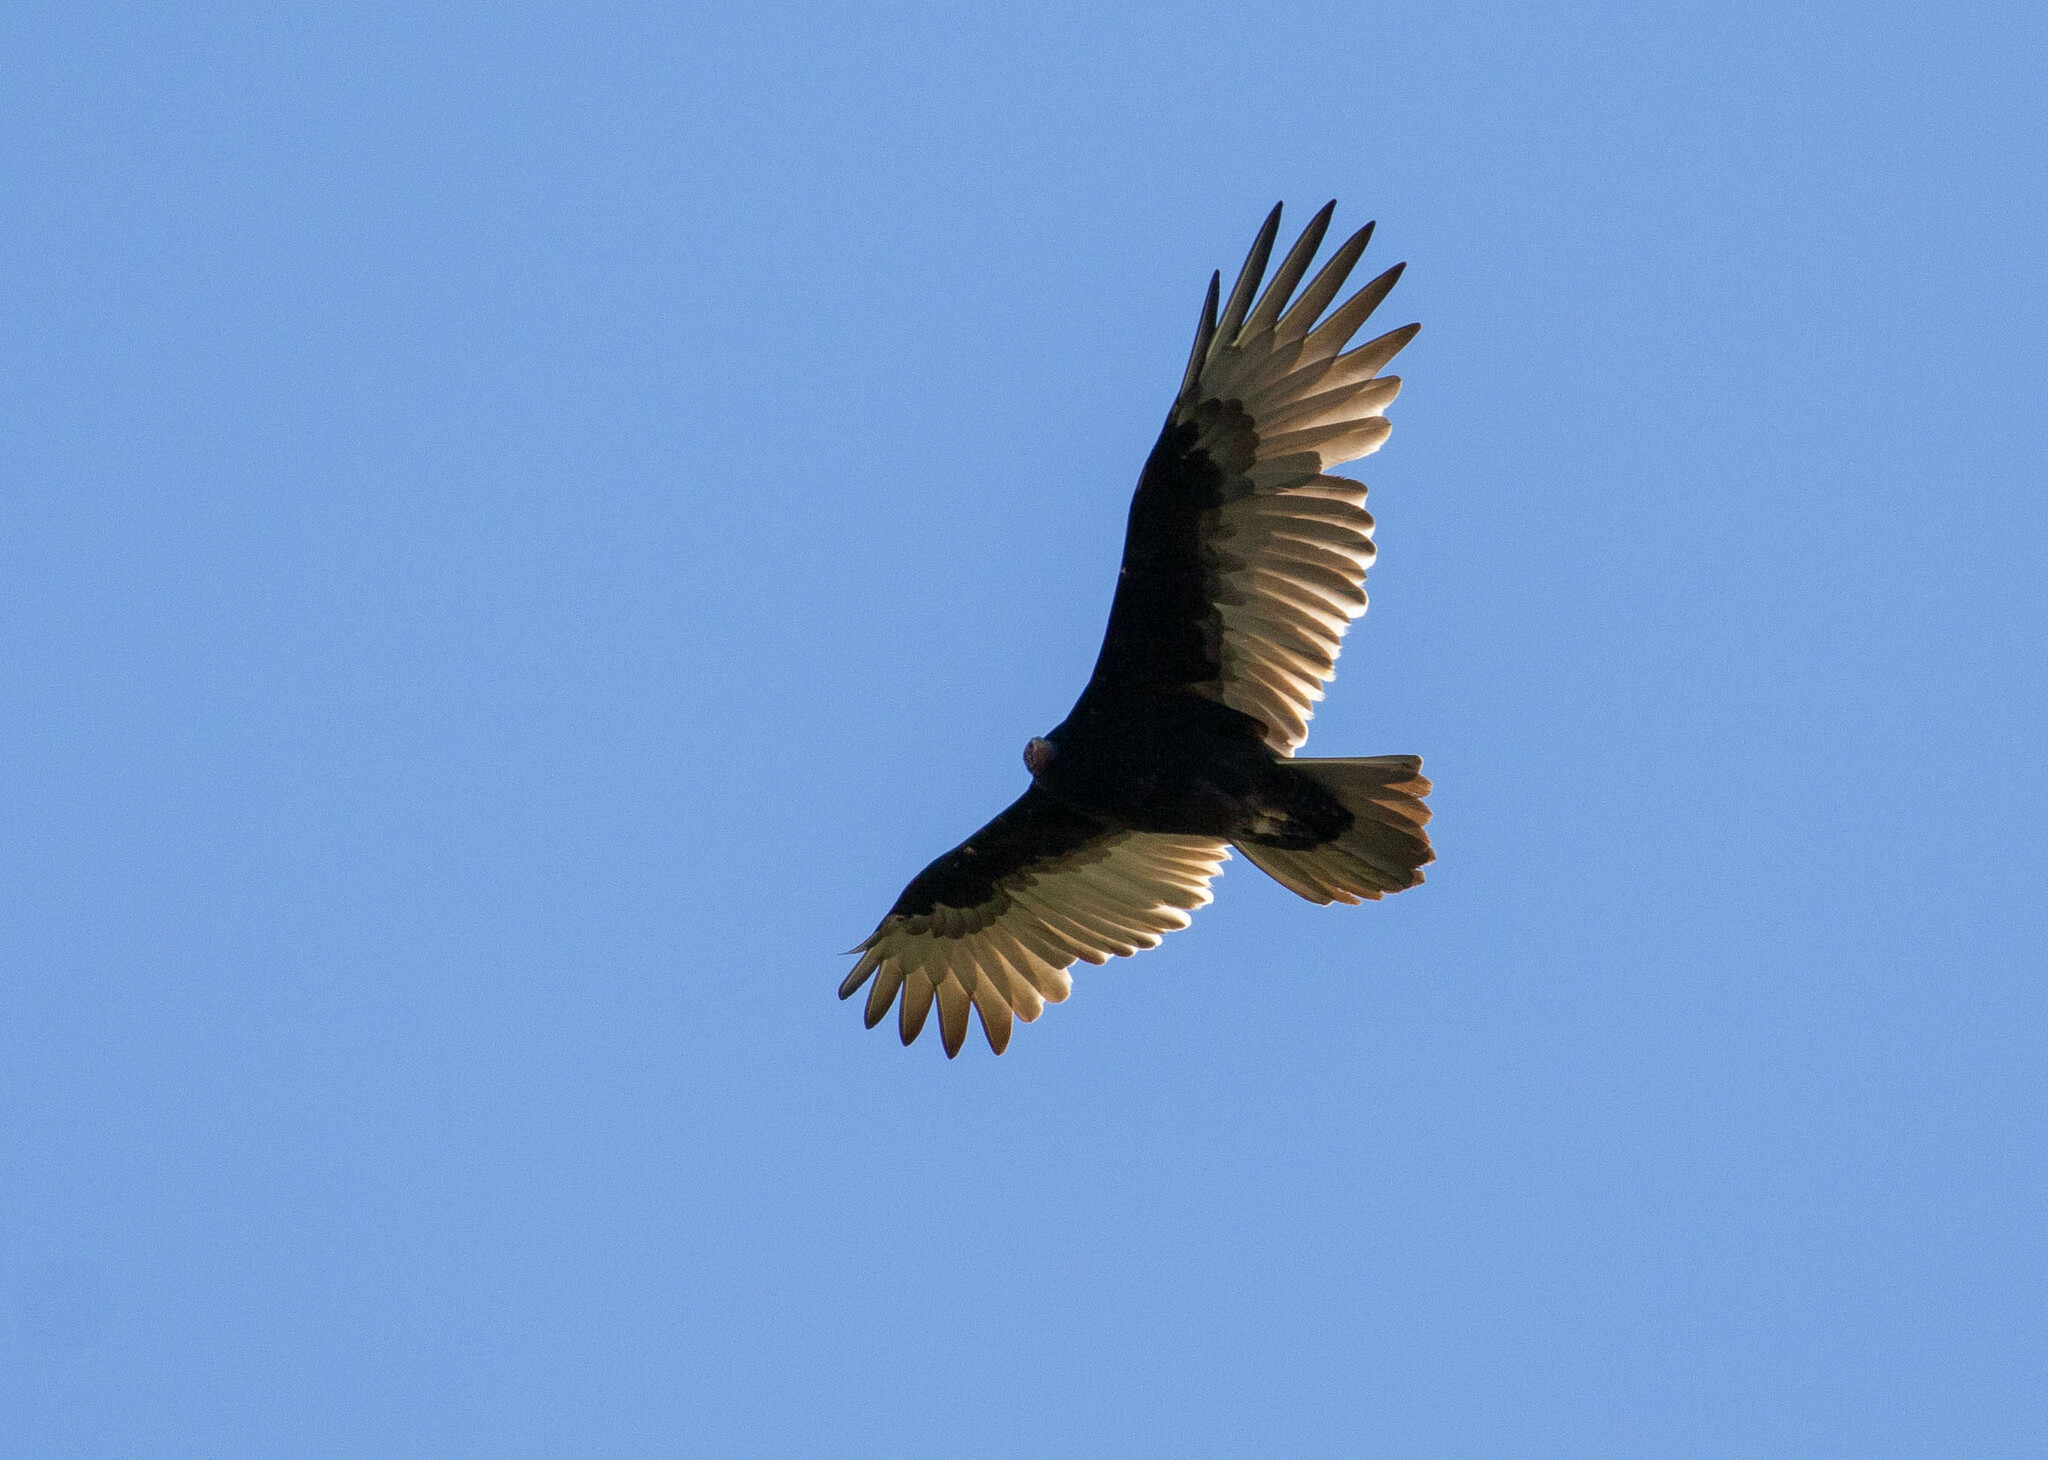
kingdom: Animalia
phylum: Chordata
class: Aves
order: Accipitriformes
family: Cathartidae
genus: Cathartes
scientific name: Cathartes aura
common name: Turkey vulture
